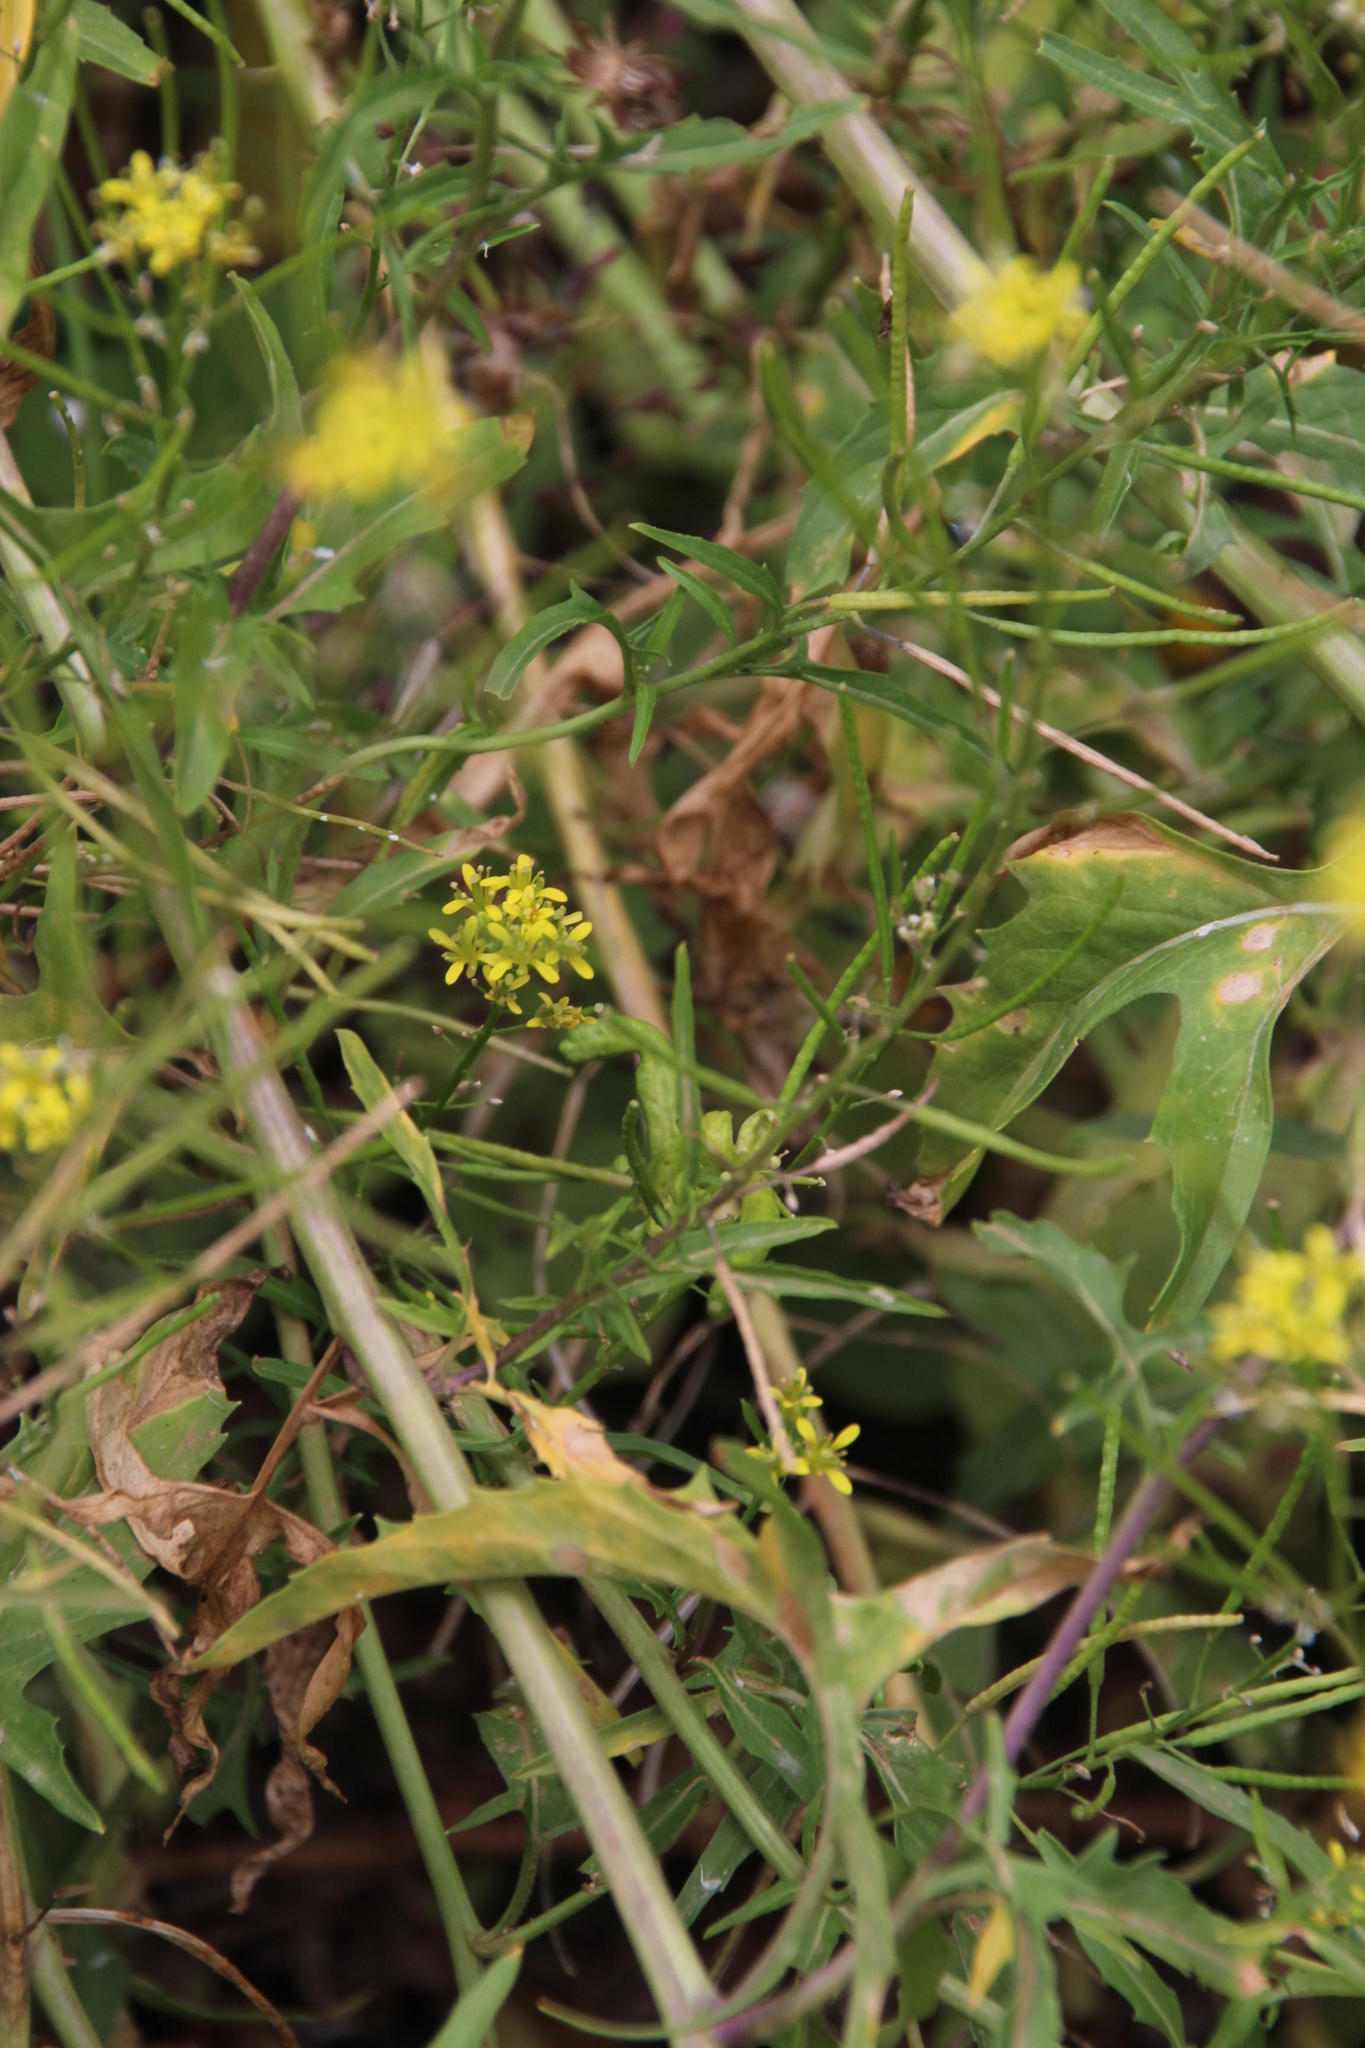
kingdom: Plantae
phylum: Tracheophyta
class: Magnoliopsida
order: Brassicales
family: Brassicaceae
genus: Sisymbrium
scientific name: Sisymbrium irio
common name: London rocket
